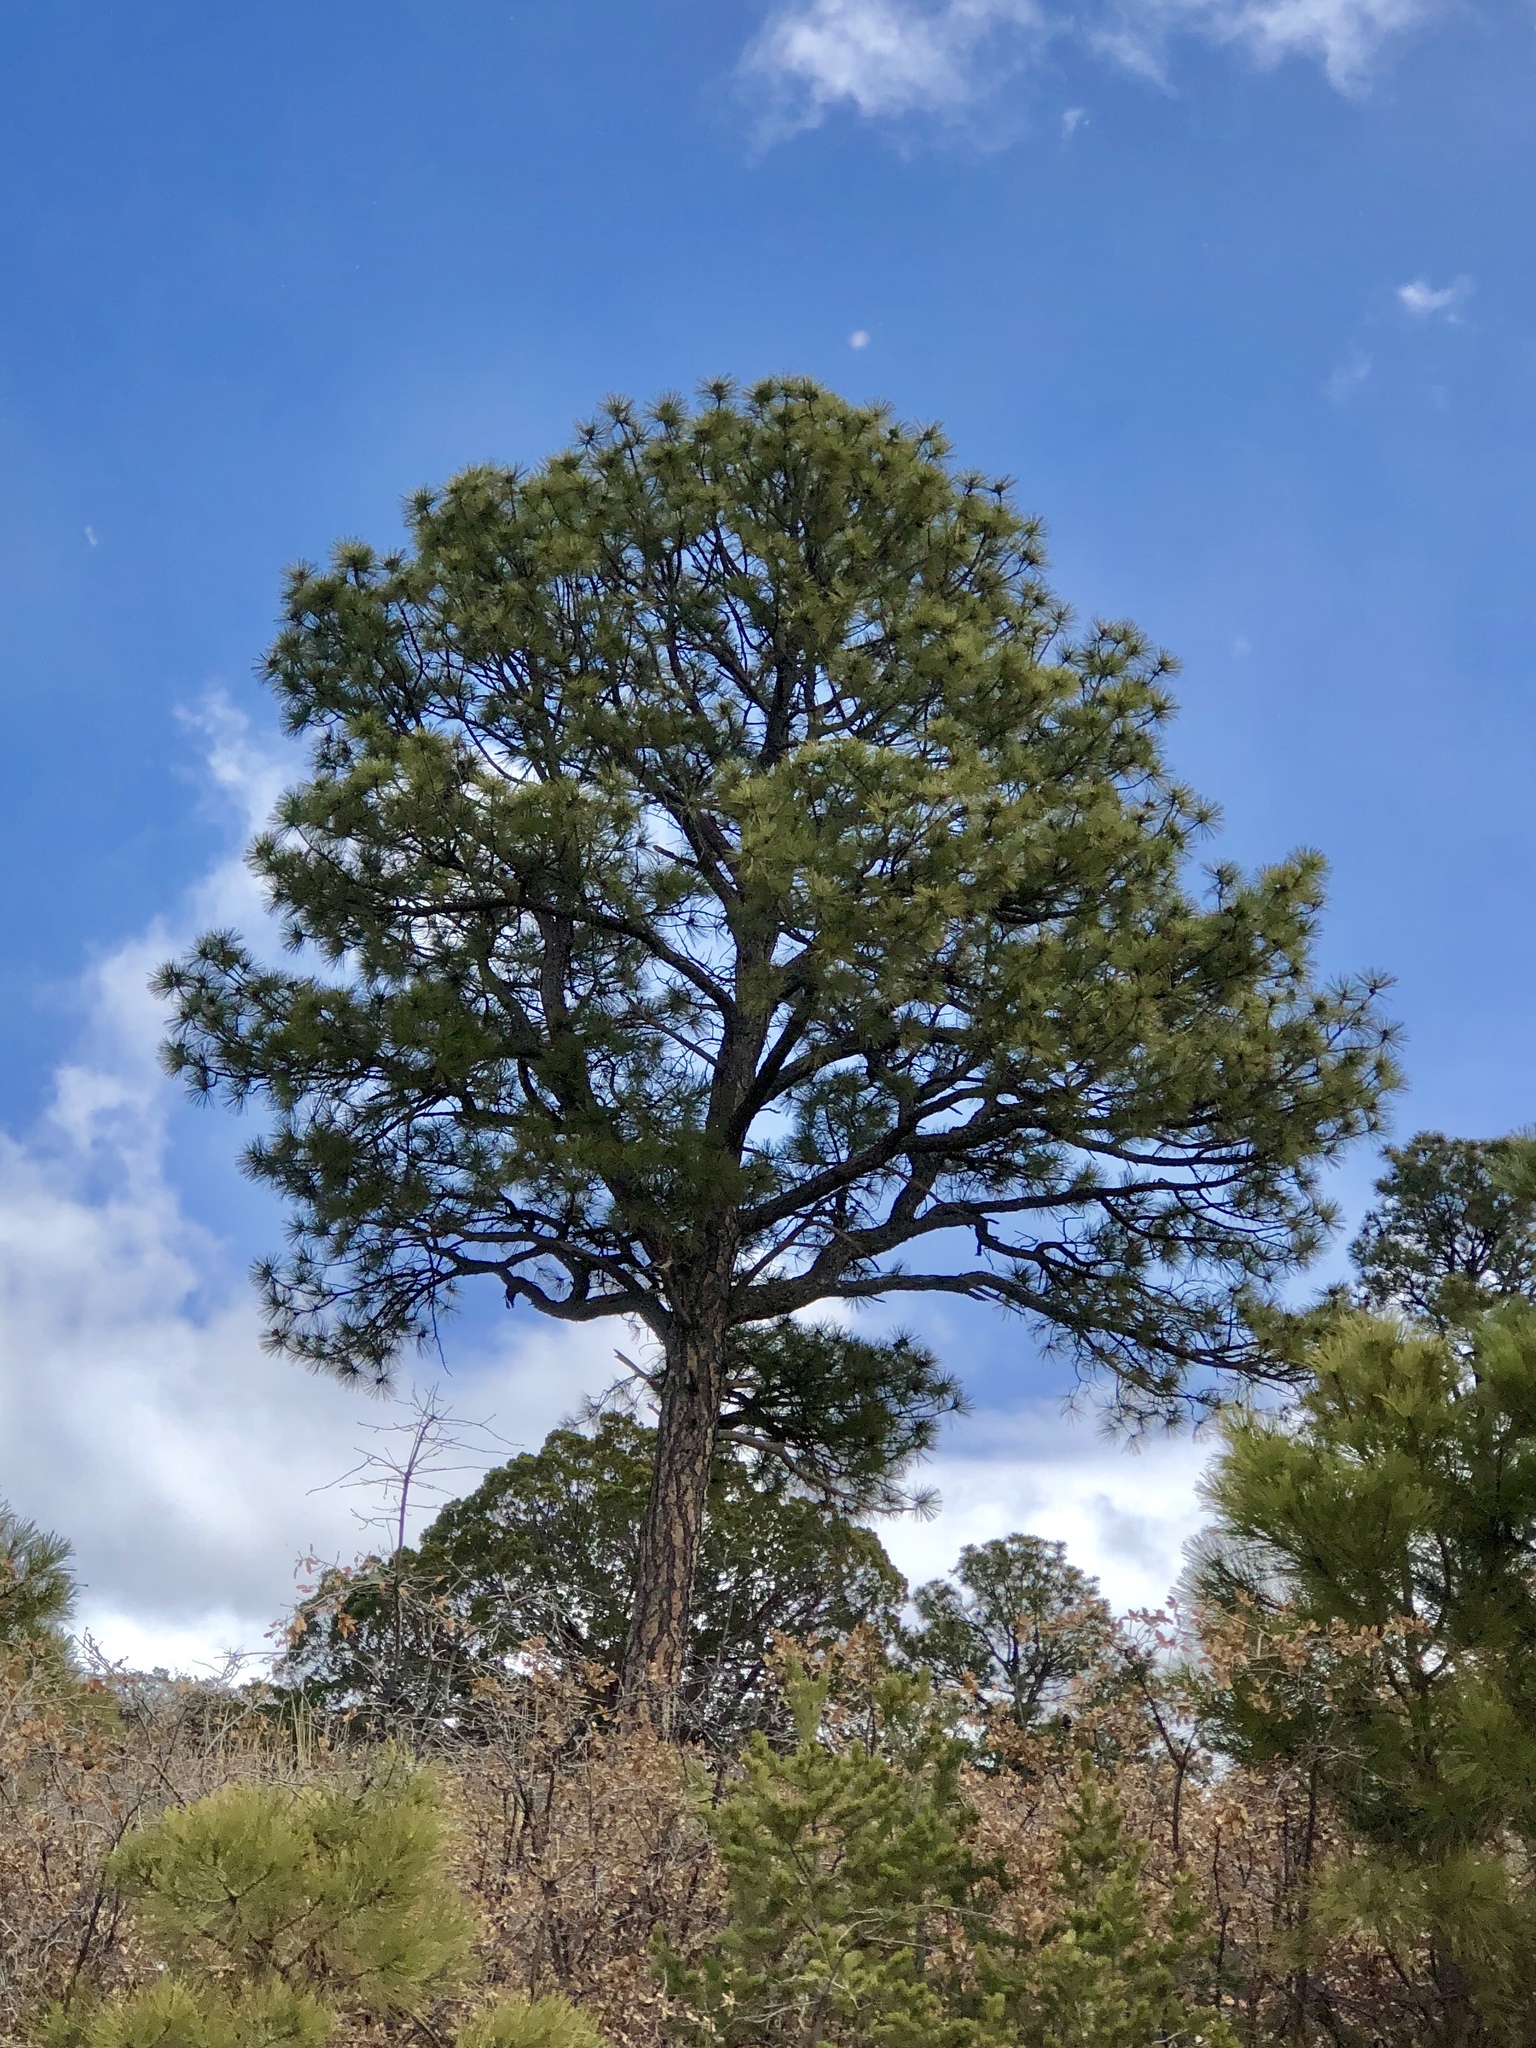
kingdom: Plantae
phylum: Tracheophyta
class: Pinopsida
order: Pinales
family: Pinaceae
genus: Pinus
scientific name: Pinus ponderosa
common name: Western yellow-pine
